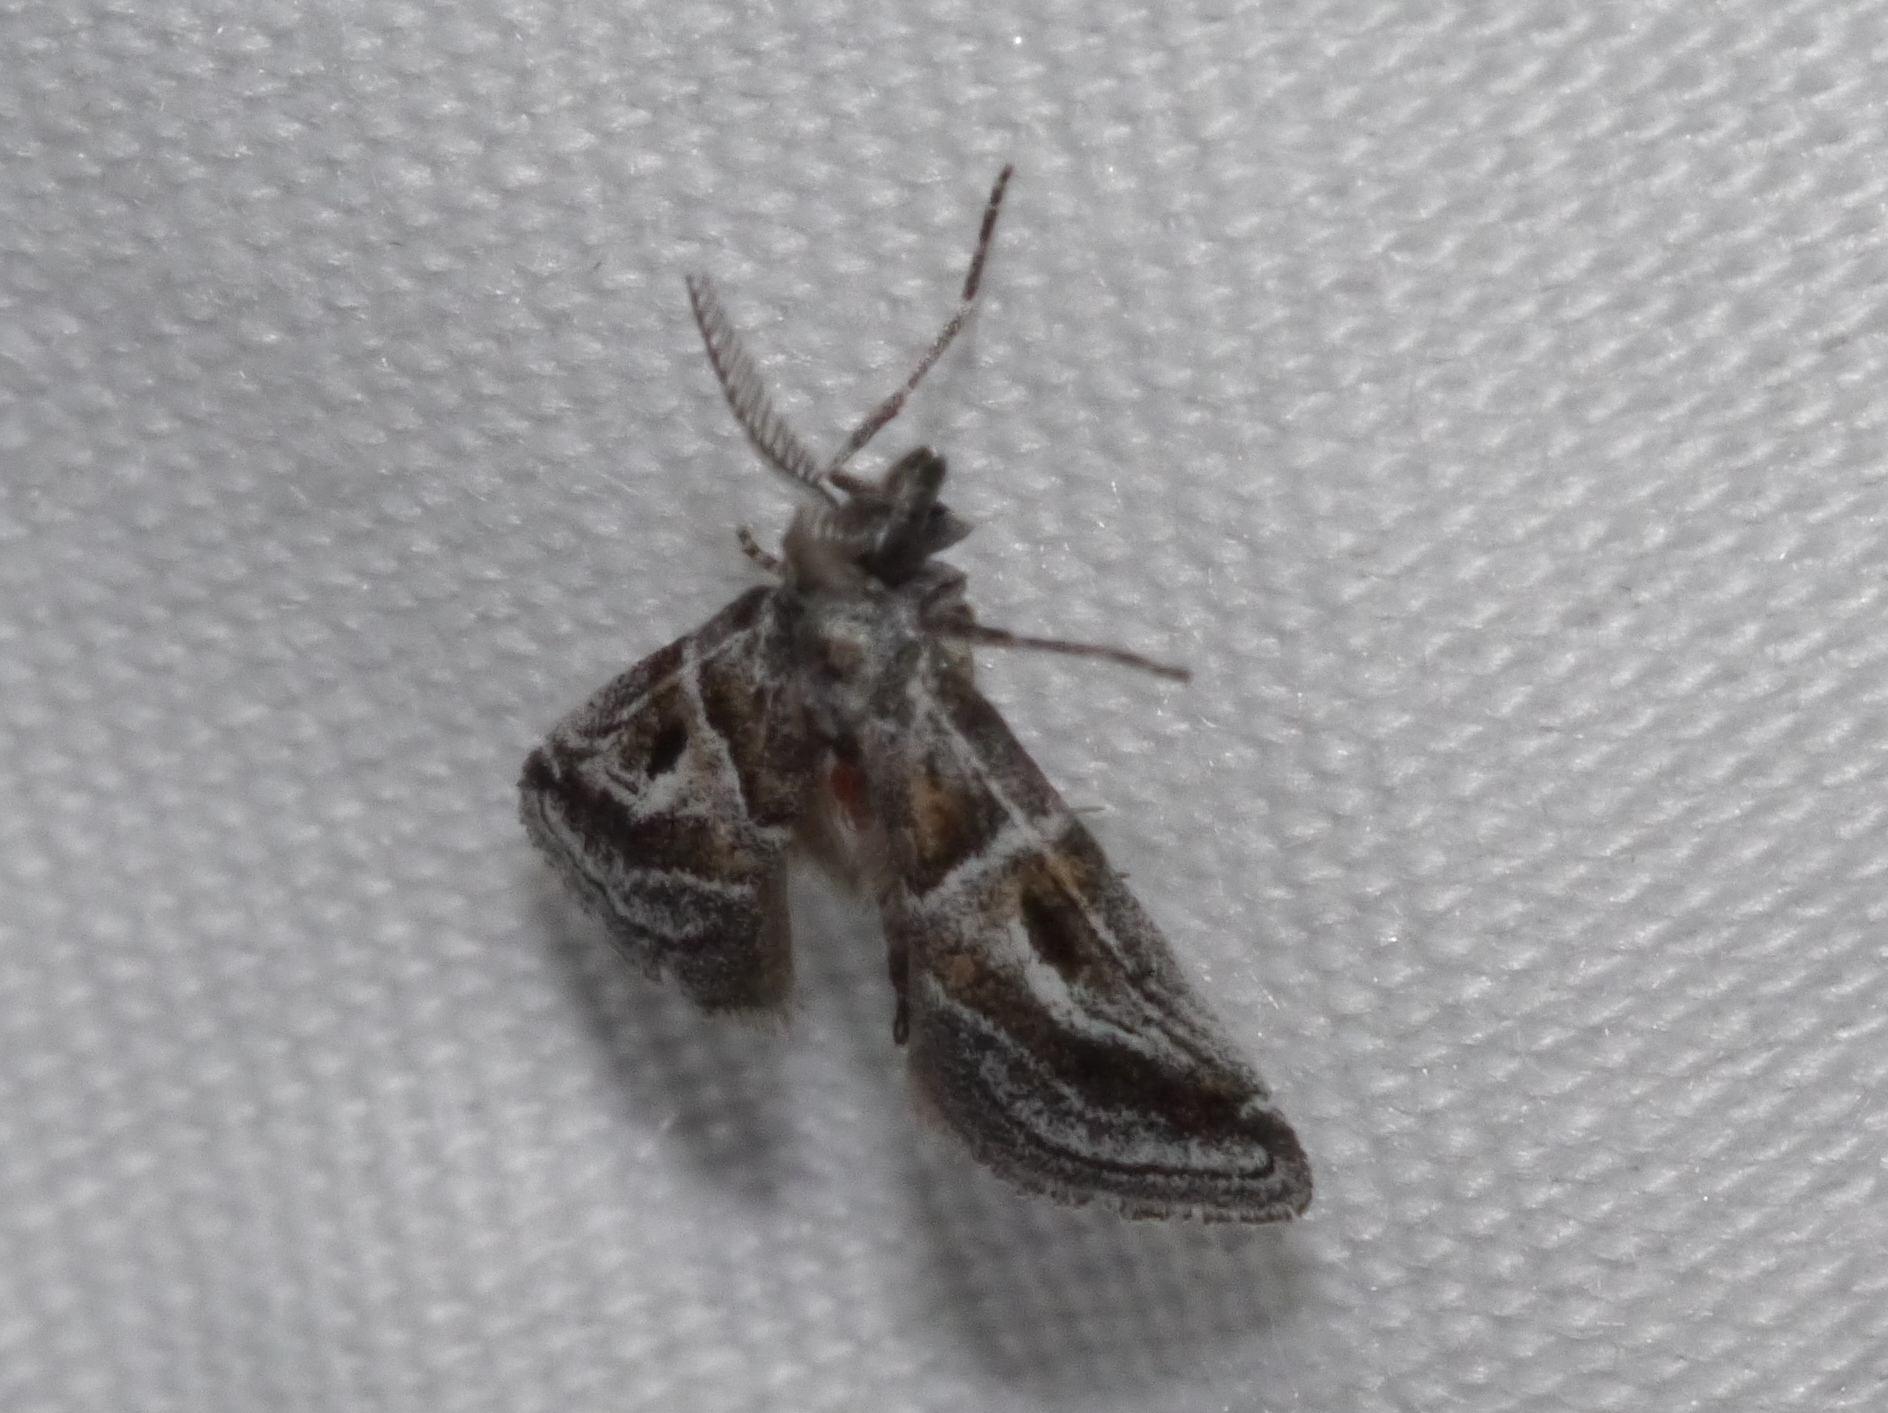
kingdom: Animalia
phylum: Arthropoda
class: Insecta
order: Lepidoptera
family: Pyralidae
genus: Alpheias
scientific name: Alpheias Decaturia pectinalis
